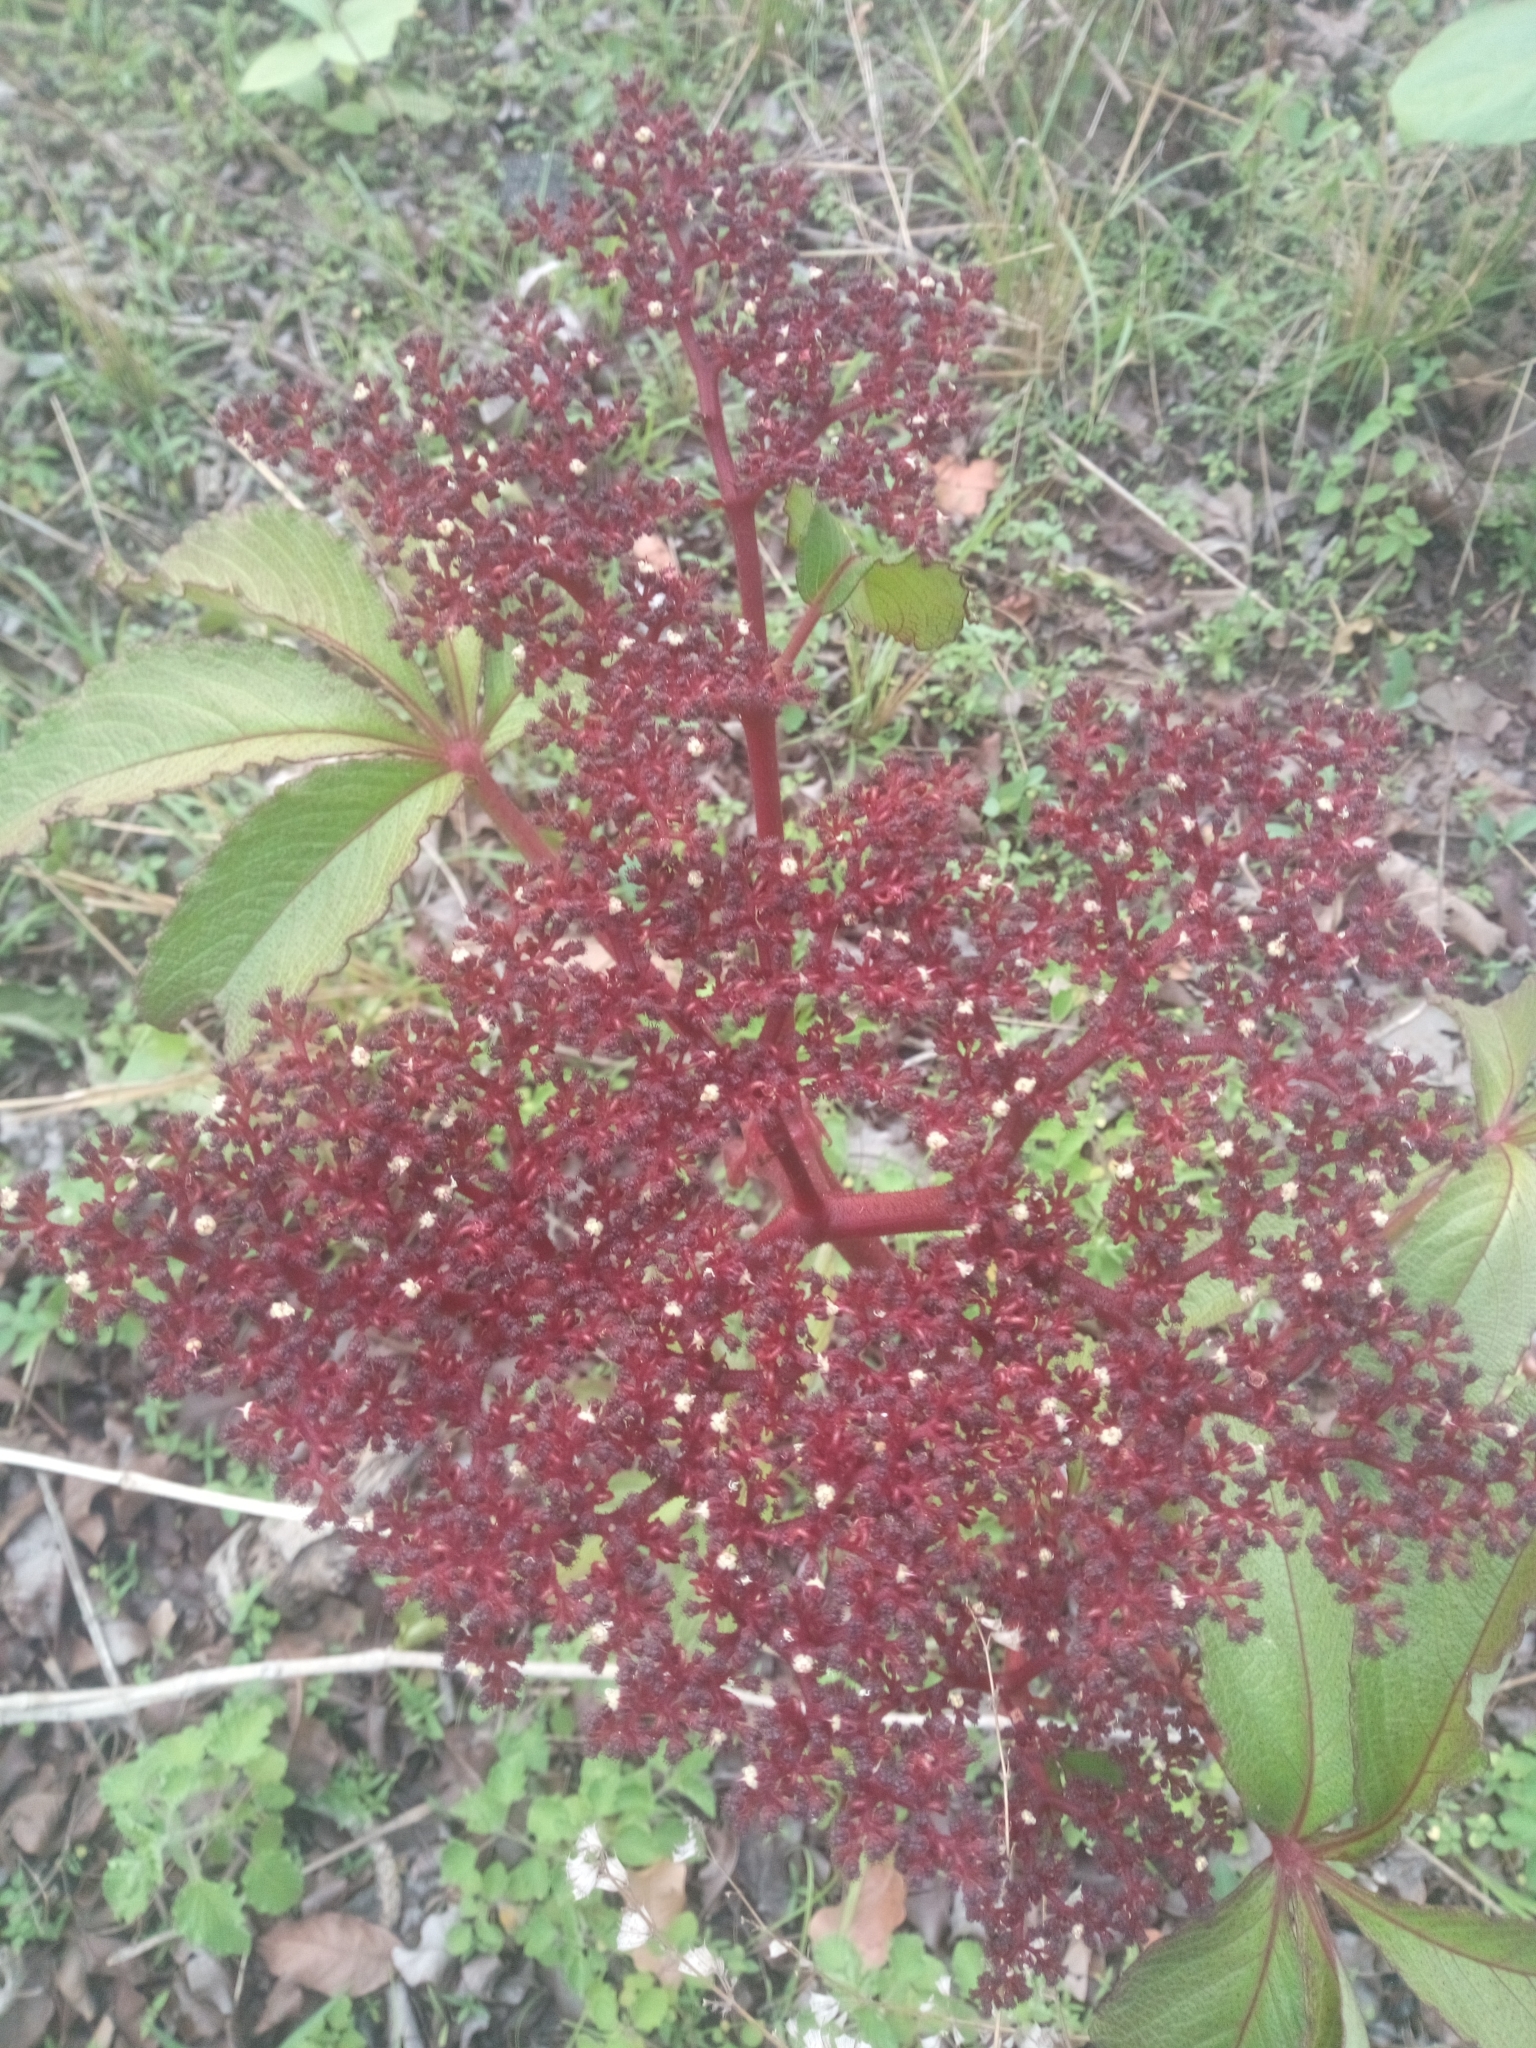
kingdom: Plantae
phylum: Tracheophyta
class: Magnoliopsida
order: Vitales
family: Vitaceae
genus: Cyphostemma
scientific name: Cyphostemma flavicans
